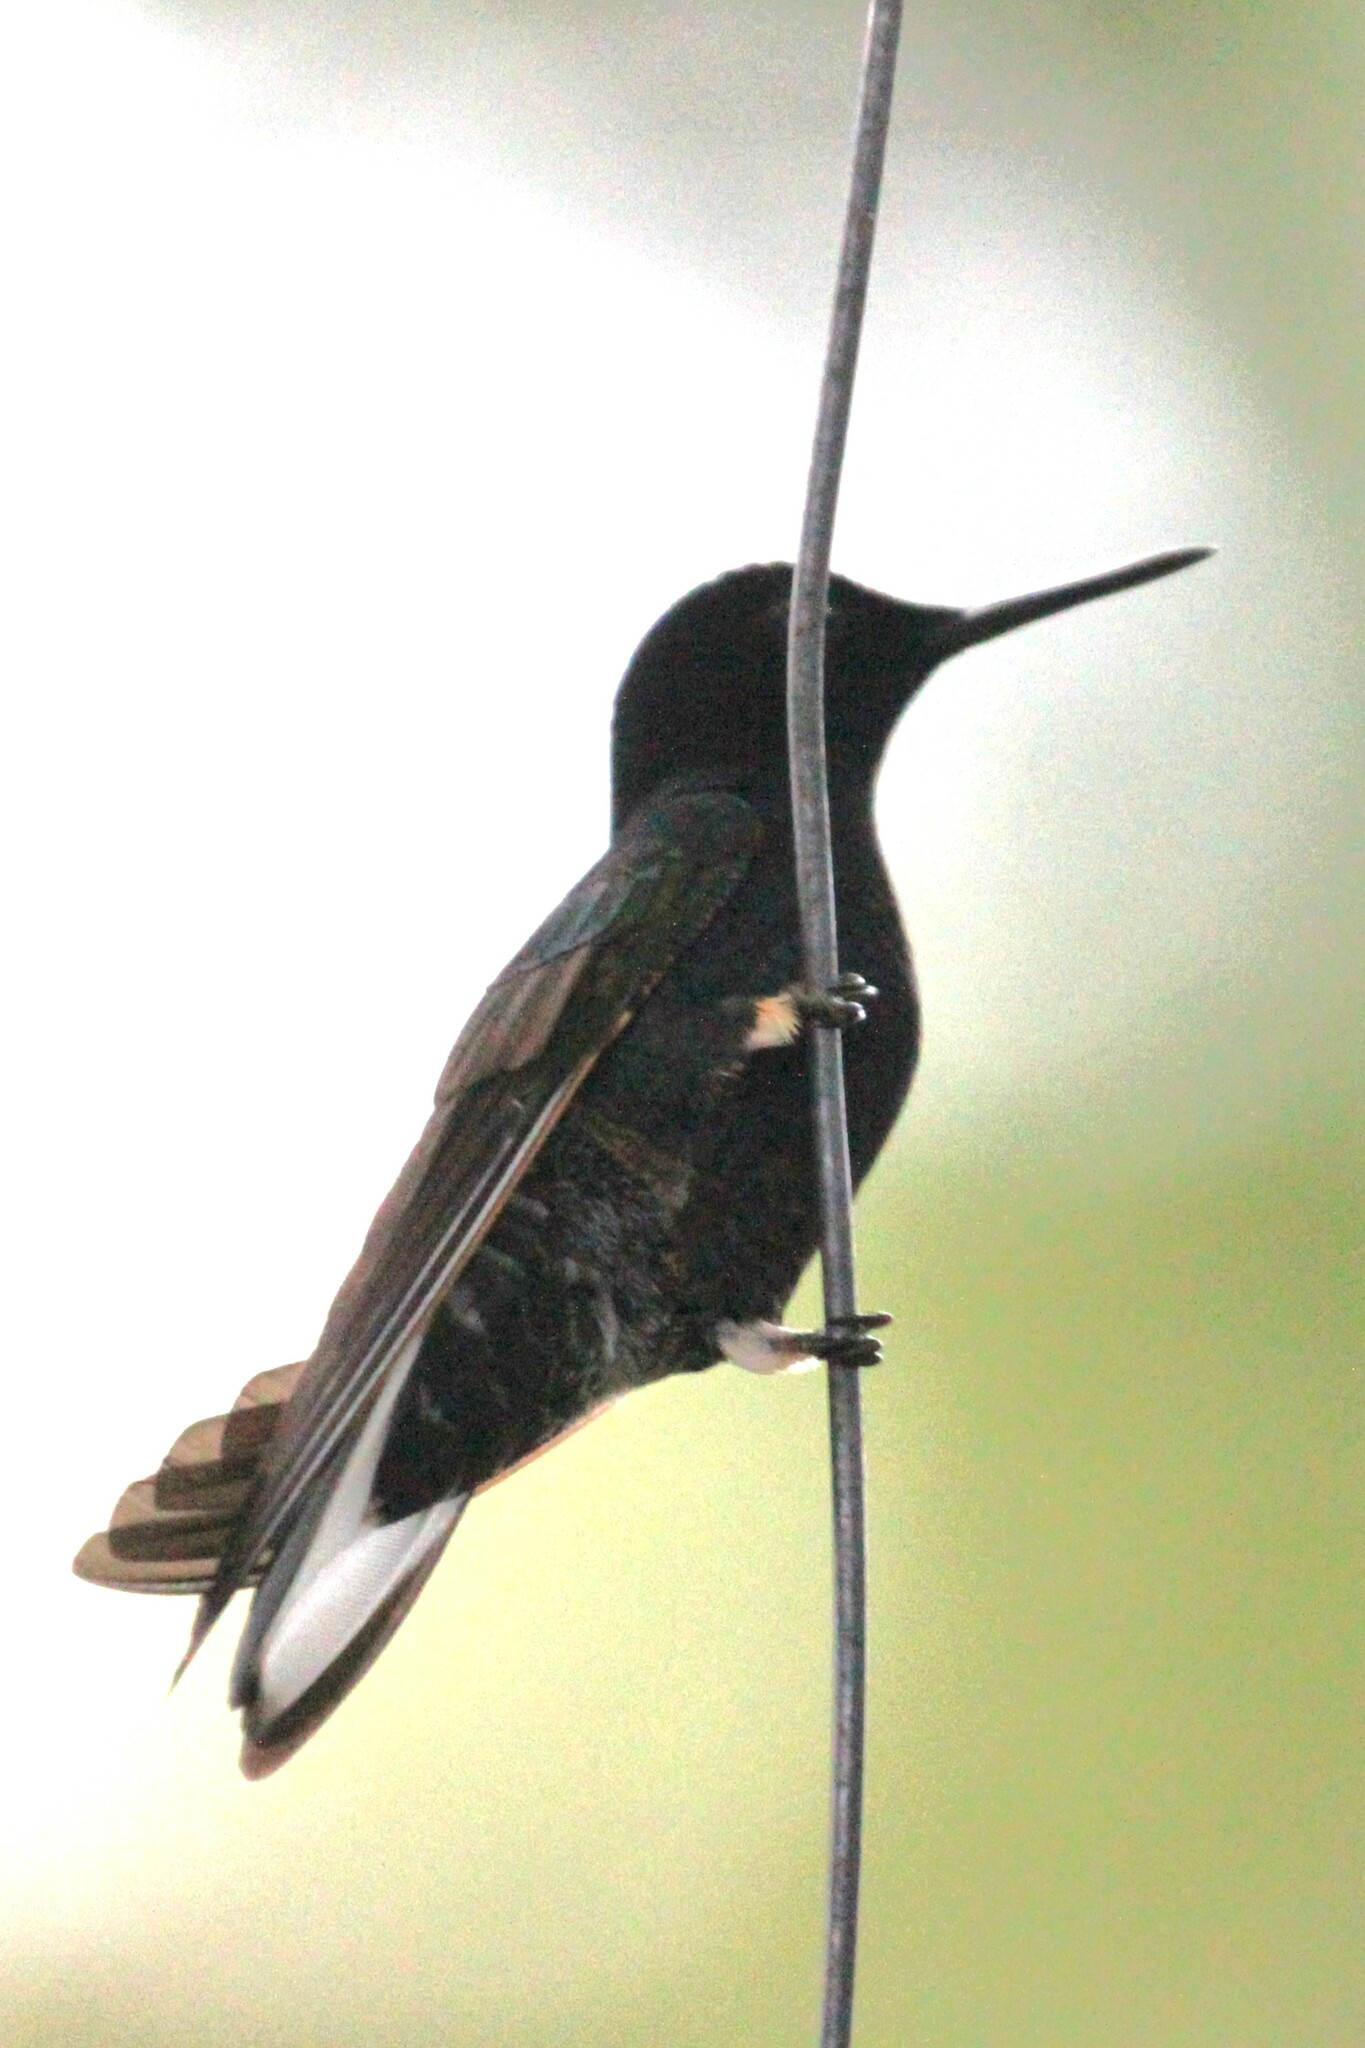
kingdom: Animalia
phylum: Chordata
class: Aves
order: Apodiformes
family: Trochilidae
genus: Boissonneaua
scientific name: Boissonneaua jardini
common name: Velvet-purple coronet
